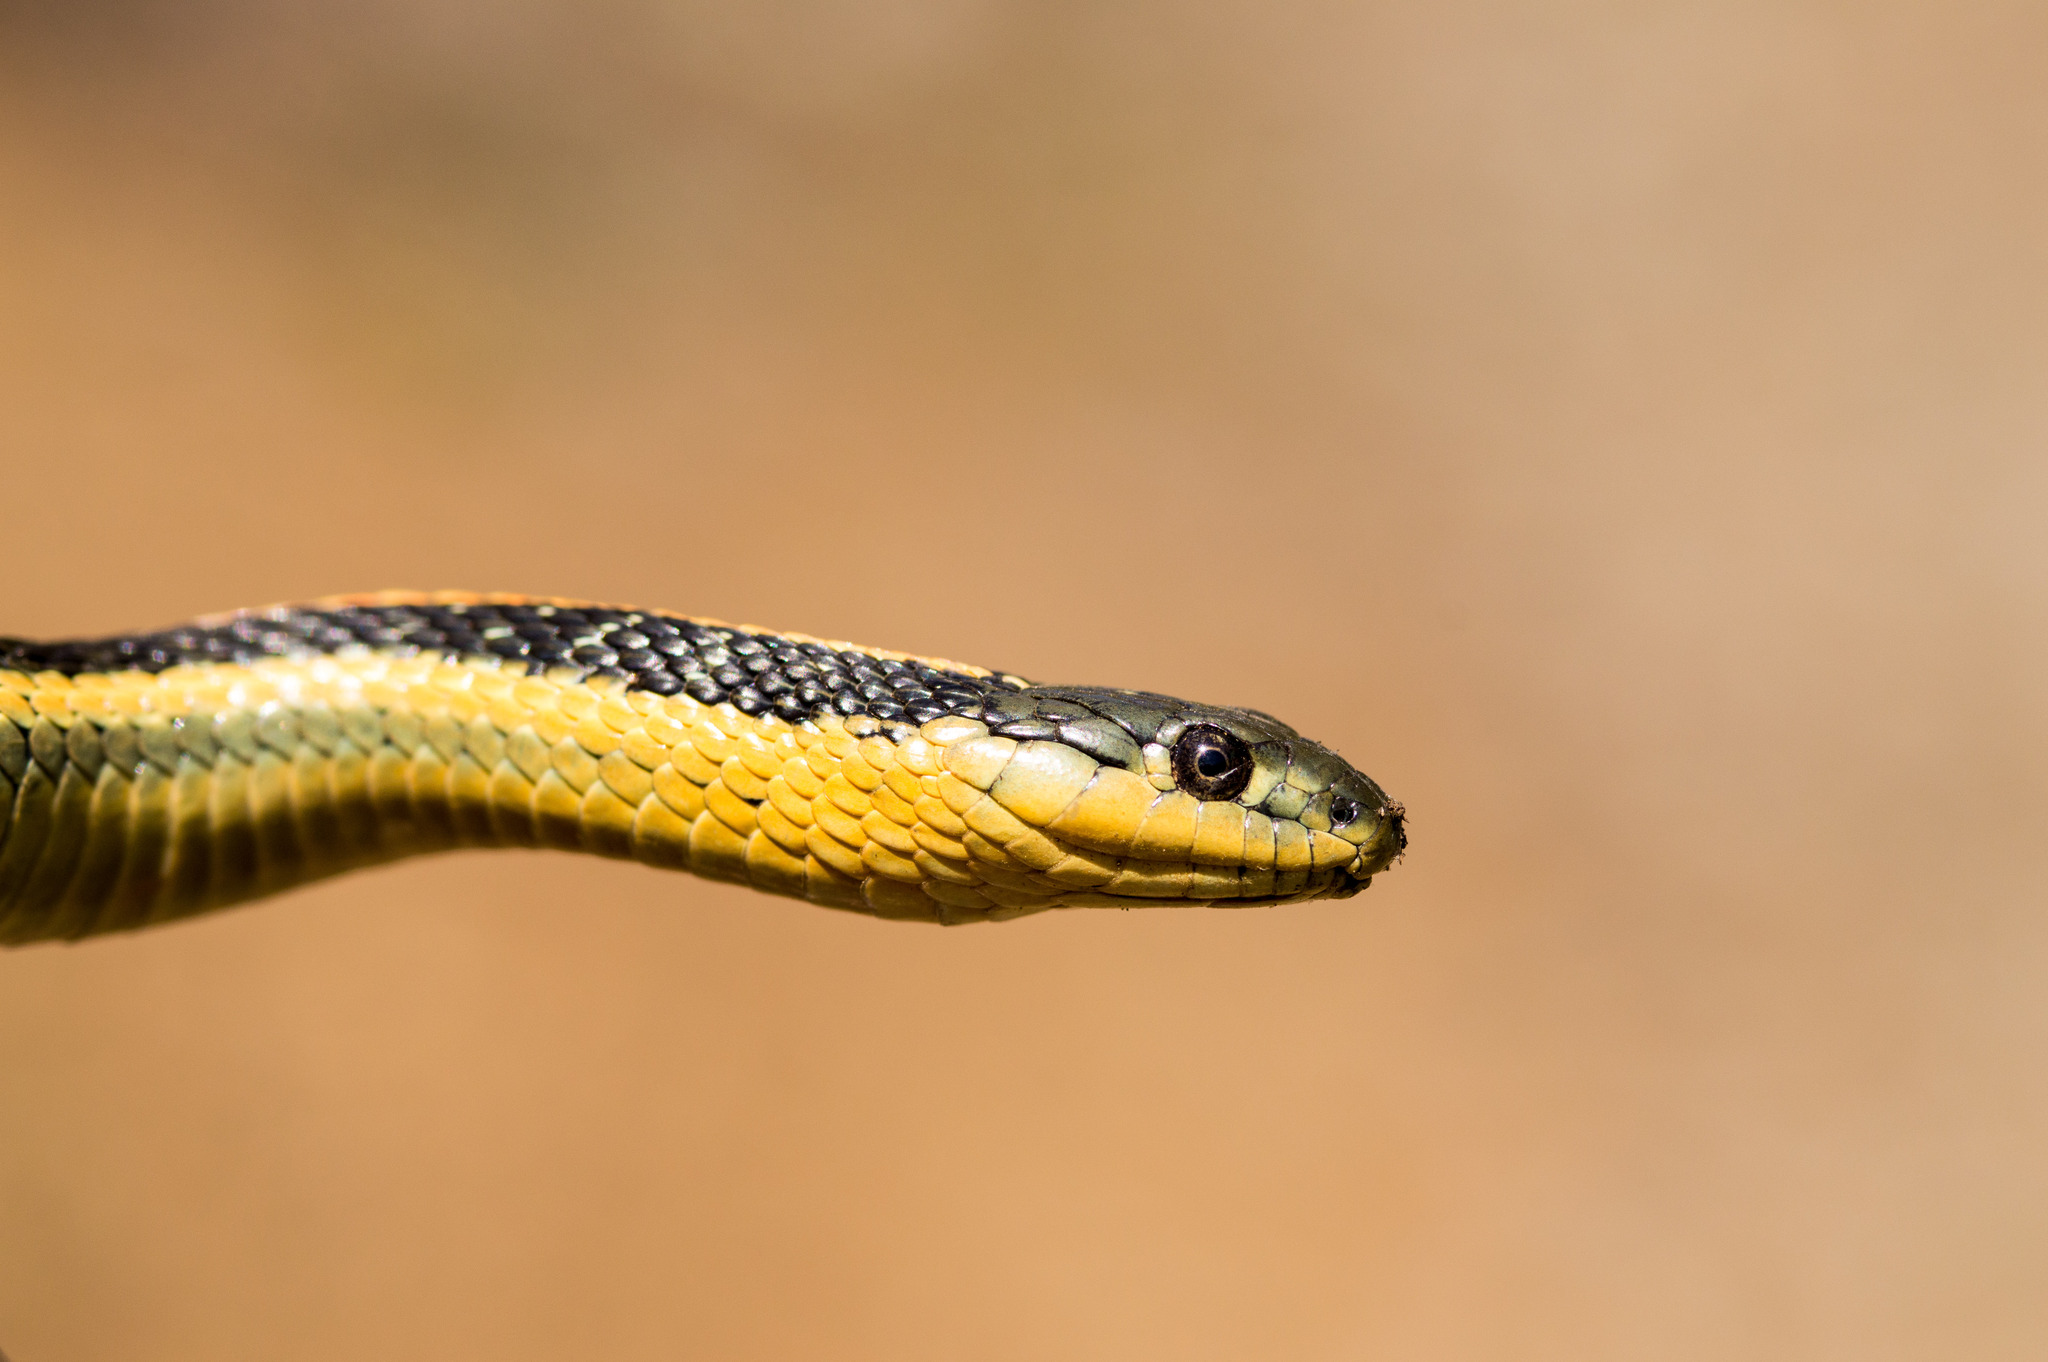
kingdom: Animalia
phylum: Chordata
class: Squamata
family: Colubridae
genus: Thamnophis
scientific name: Thamnophis atratus
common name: Pacific coast aquatic garter snake
